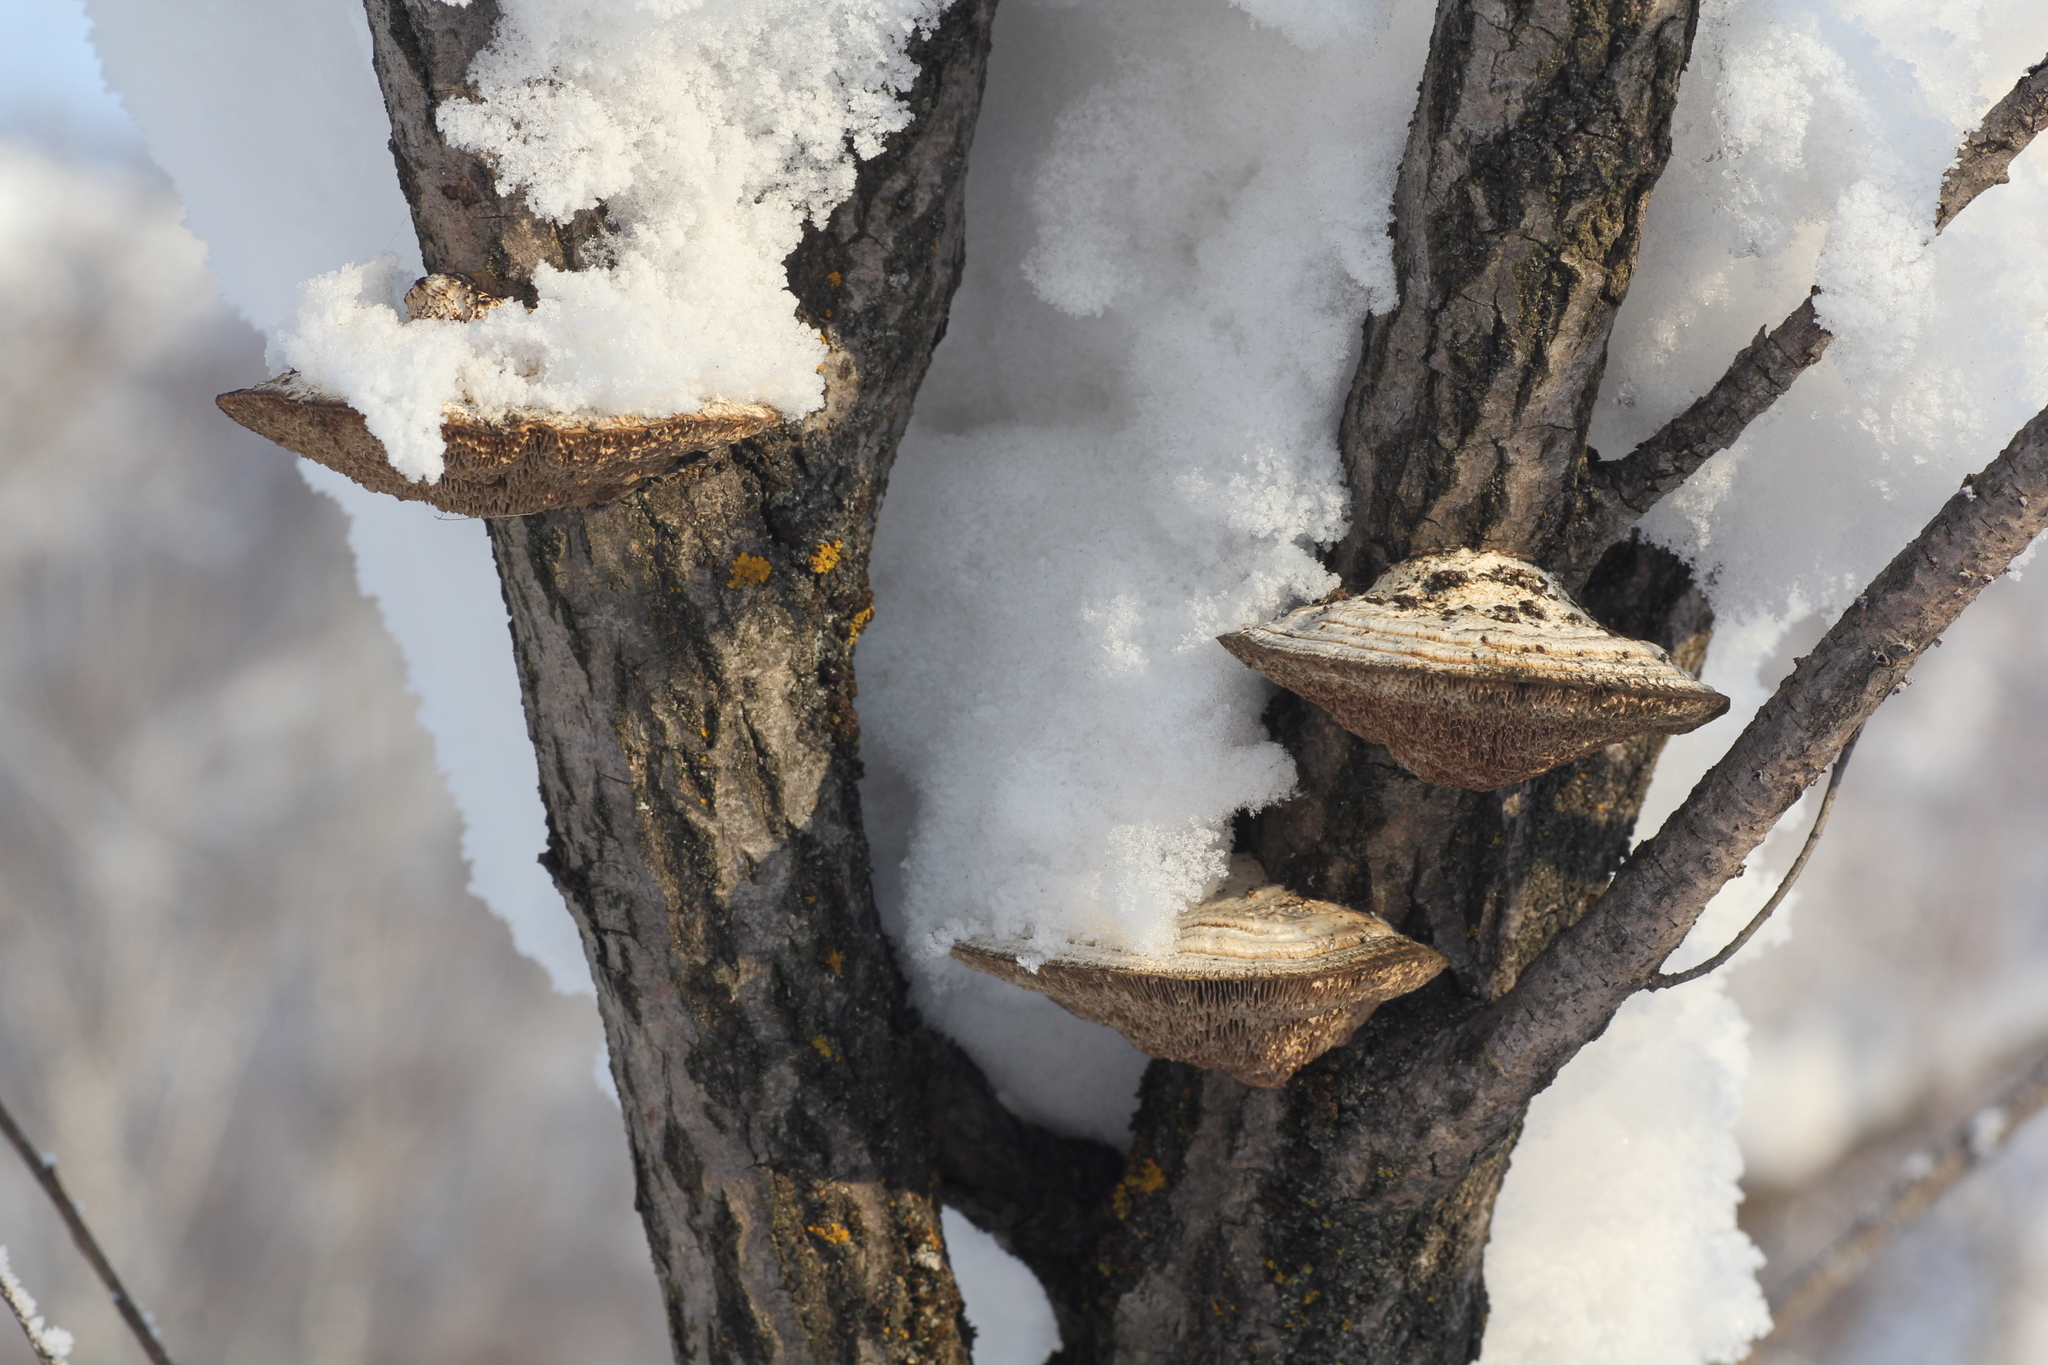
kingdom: Fungi
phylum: Basidiomycota
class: Agaricomycetes
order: Polyporales
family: Polyporaceae
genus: Daedaleopsis
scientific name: Daedaleopsis confragosa
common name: Blushing bracket
